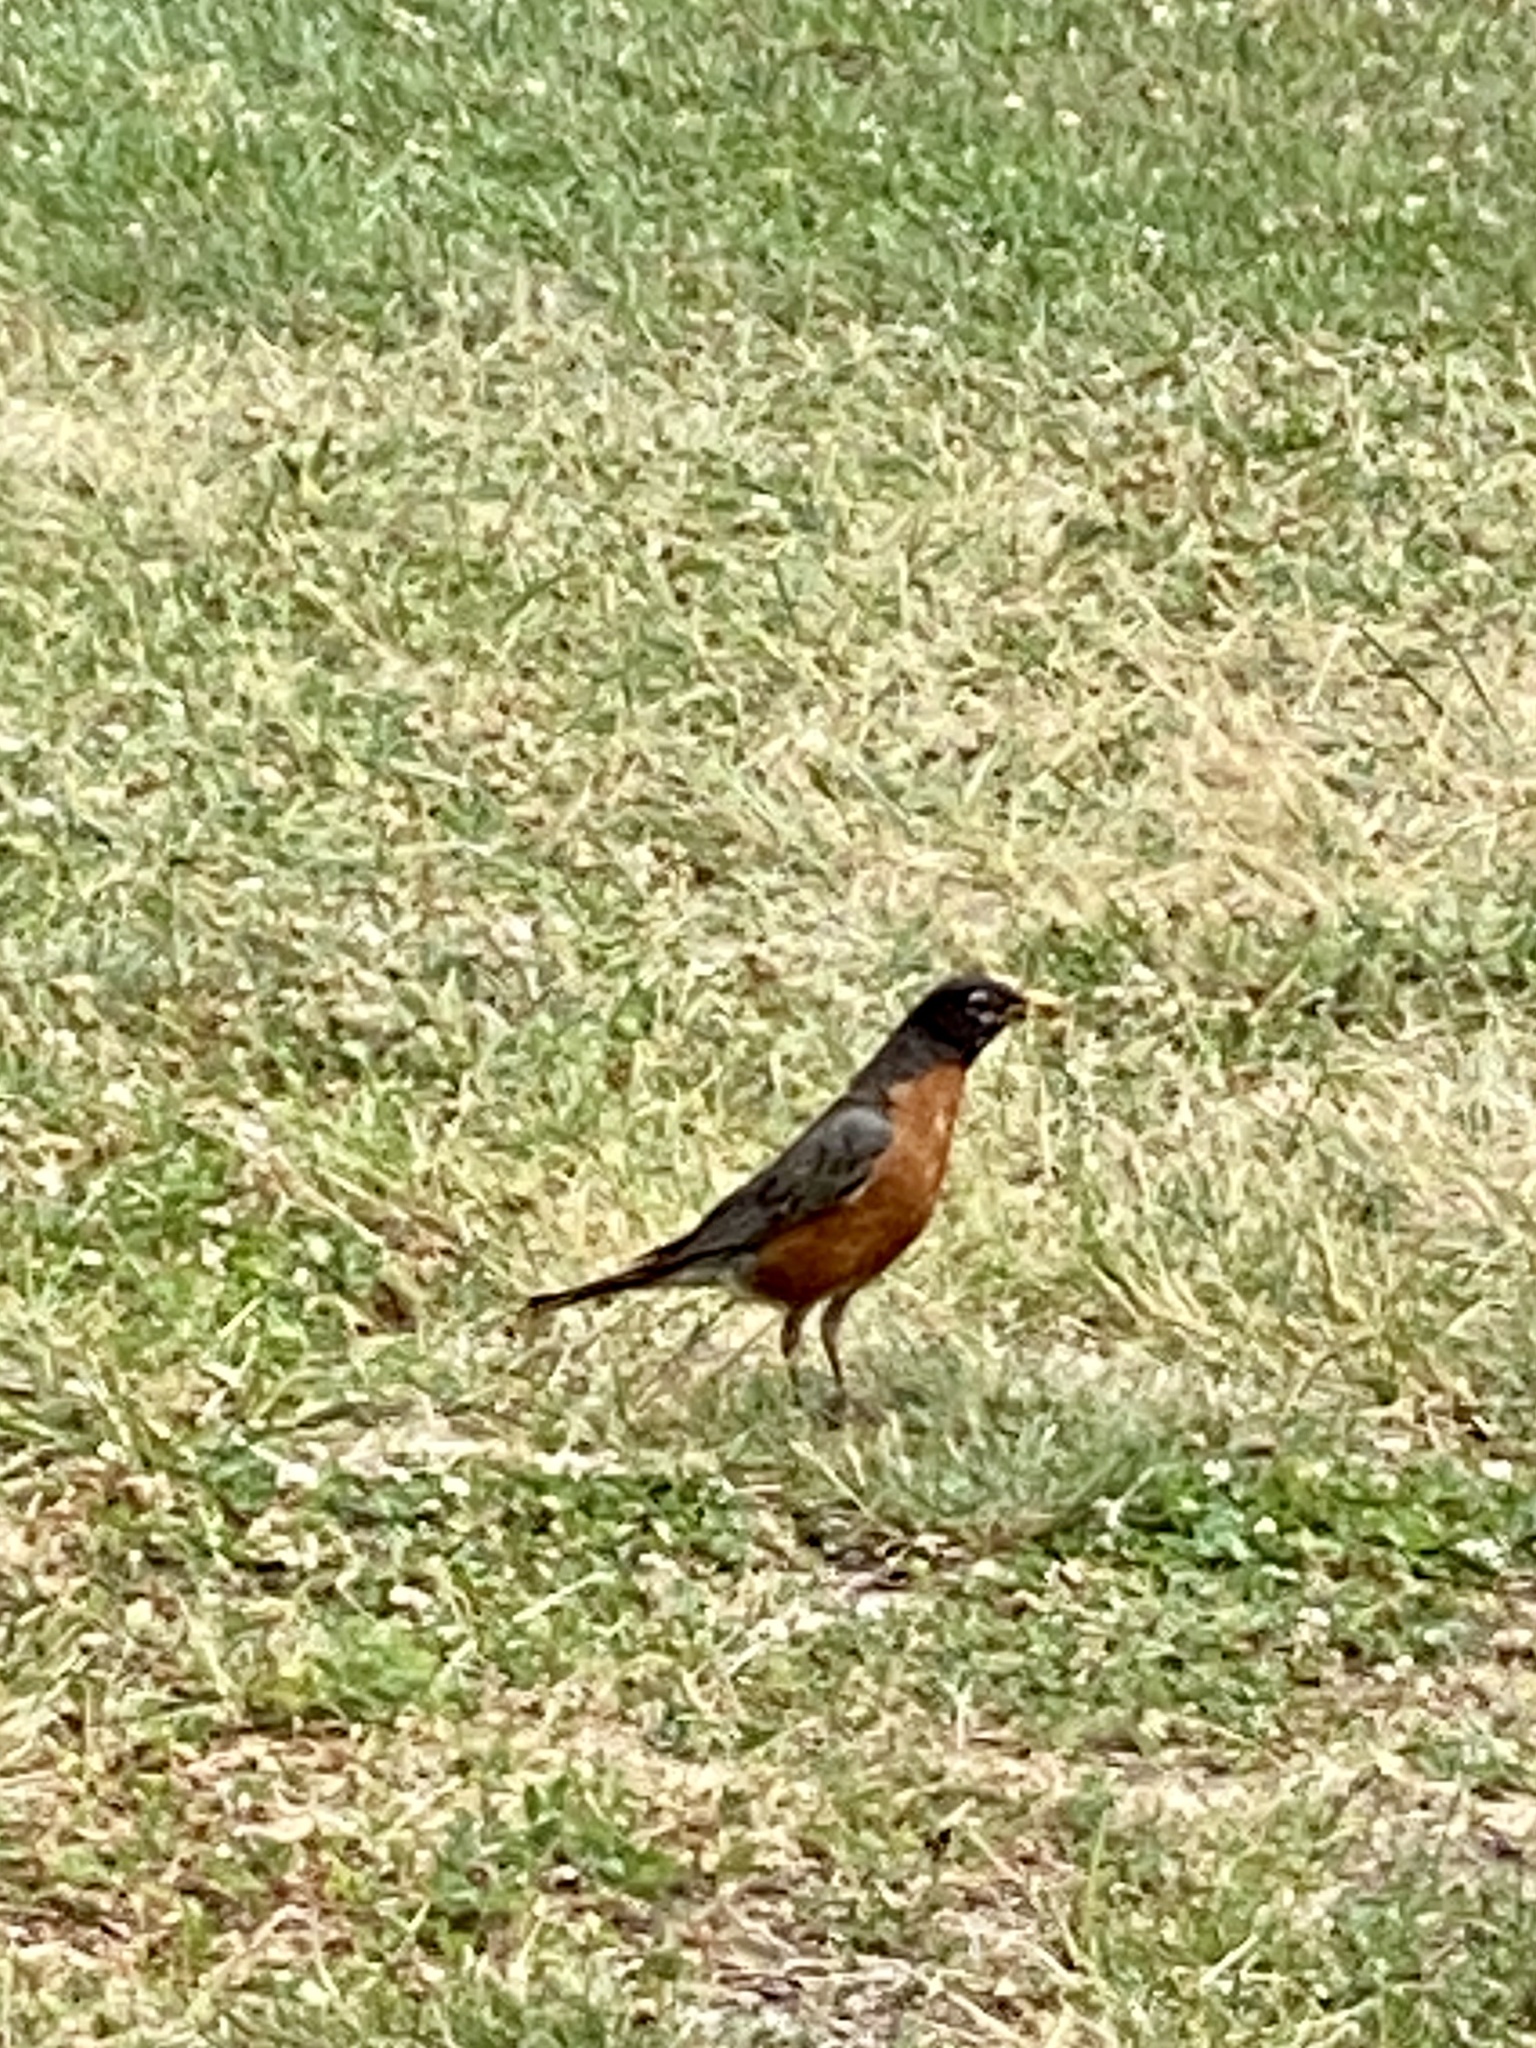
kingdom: Animalia
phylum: Chordata
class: Aves
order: Passeriformes
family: Turdidae
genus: Turdus
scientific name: Turdus migratorius
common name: American robin
